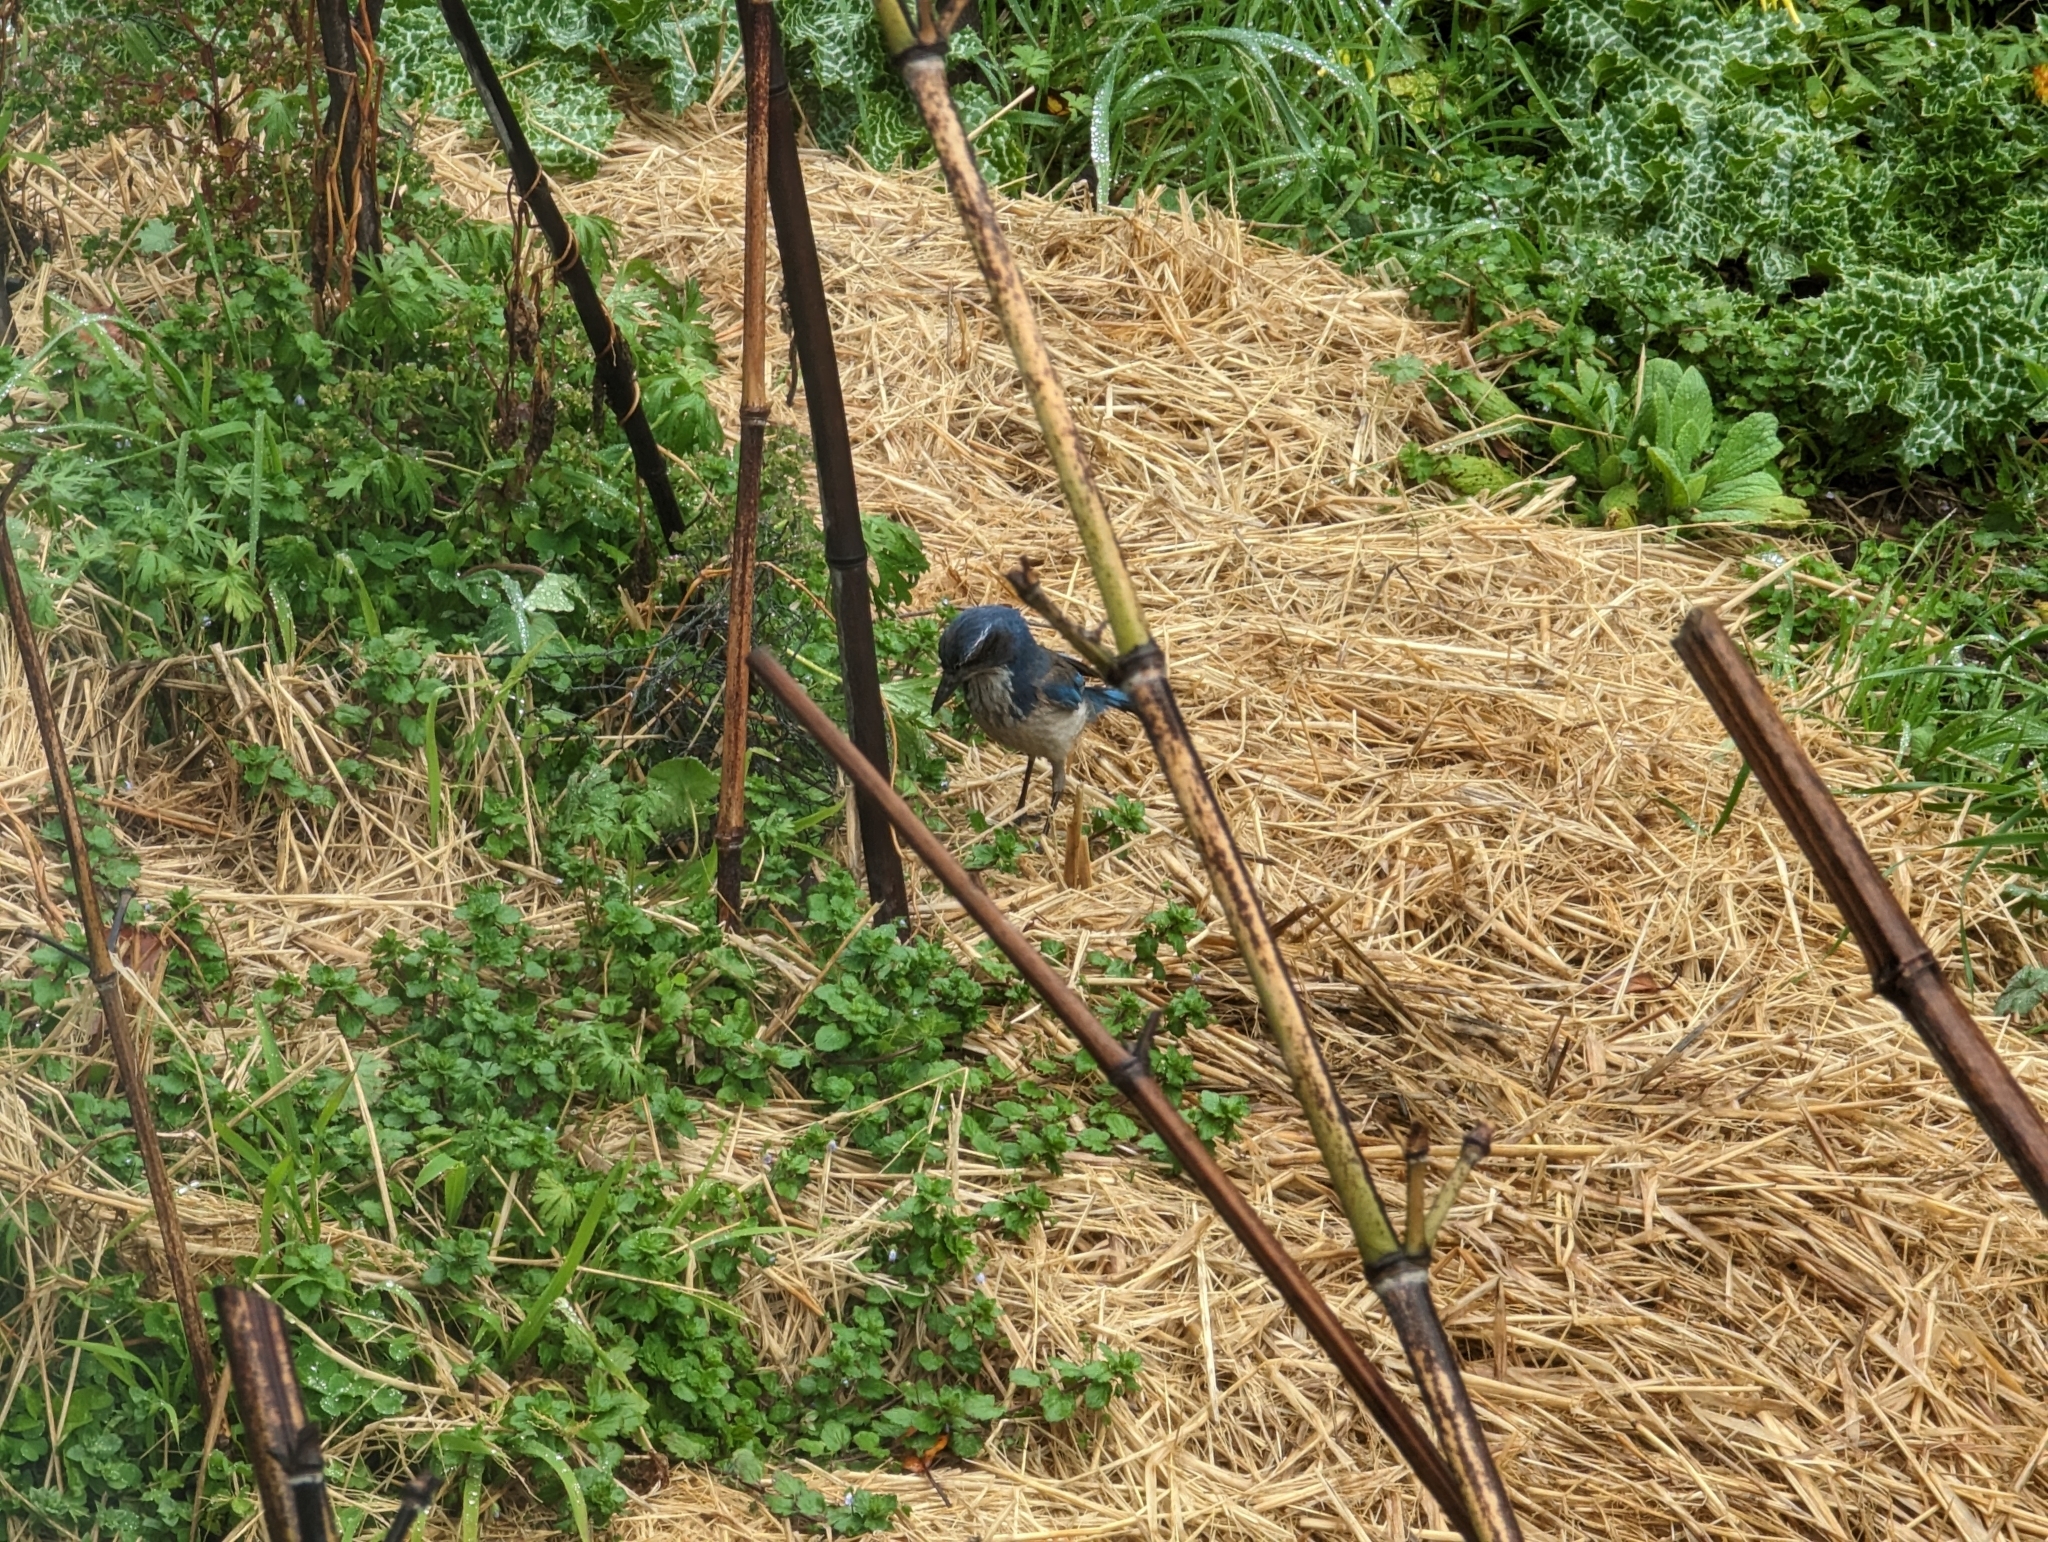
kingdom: Animalia
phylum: Chordata
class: Aves
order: Passeriformes
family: Corvidae
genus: Aphelocoma
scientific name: Aphelocoma californica
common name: California scrub-jay
